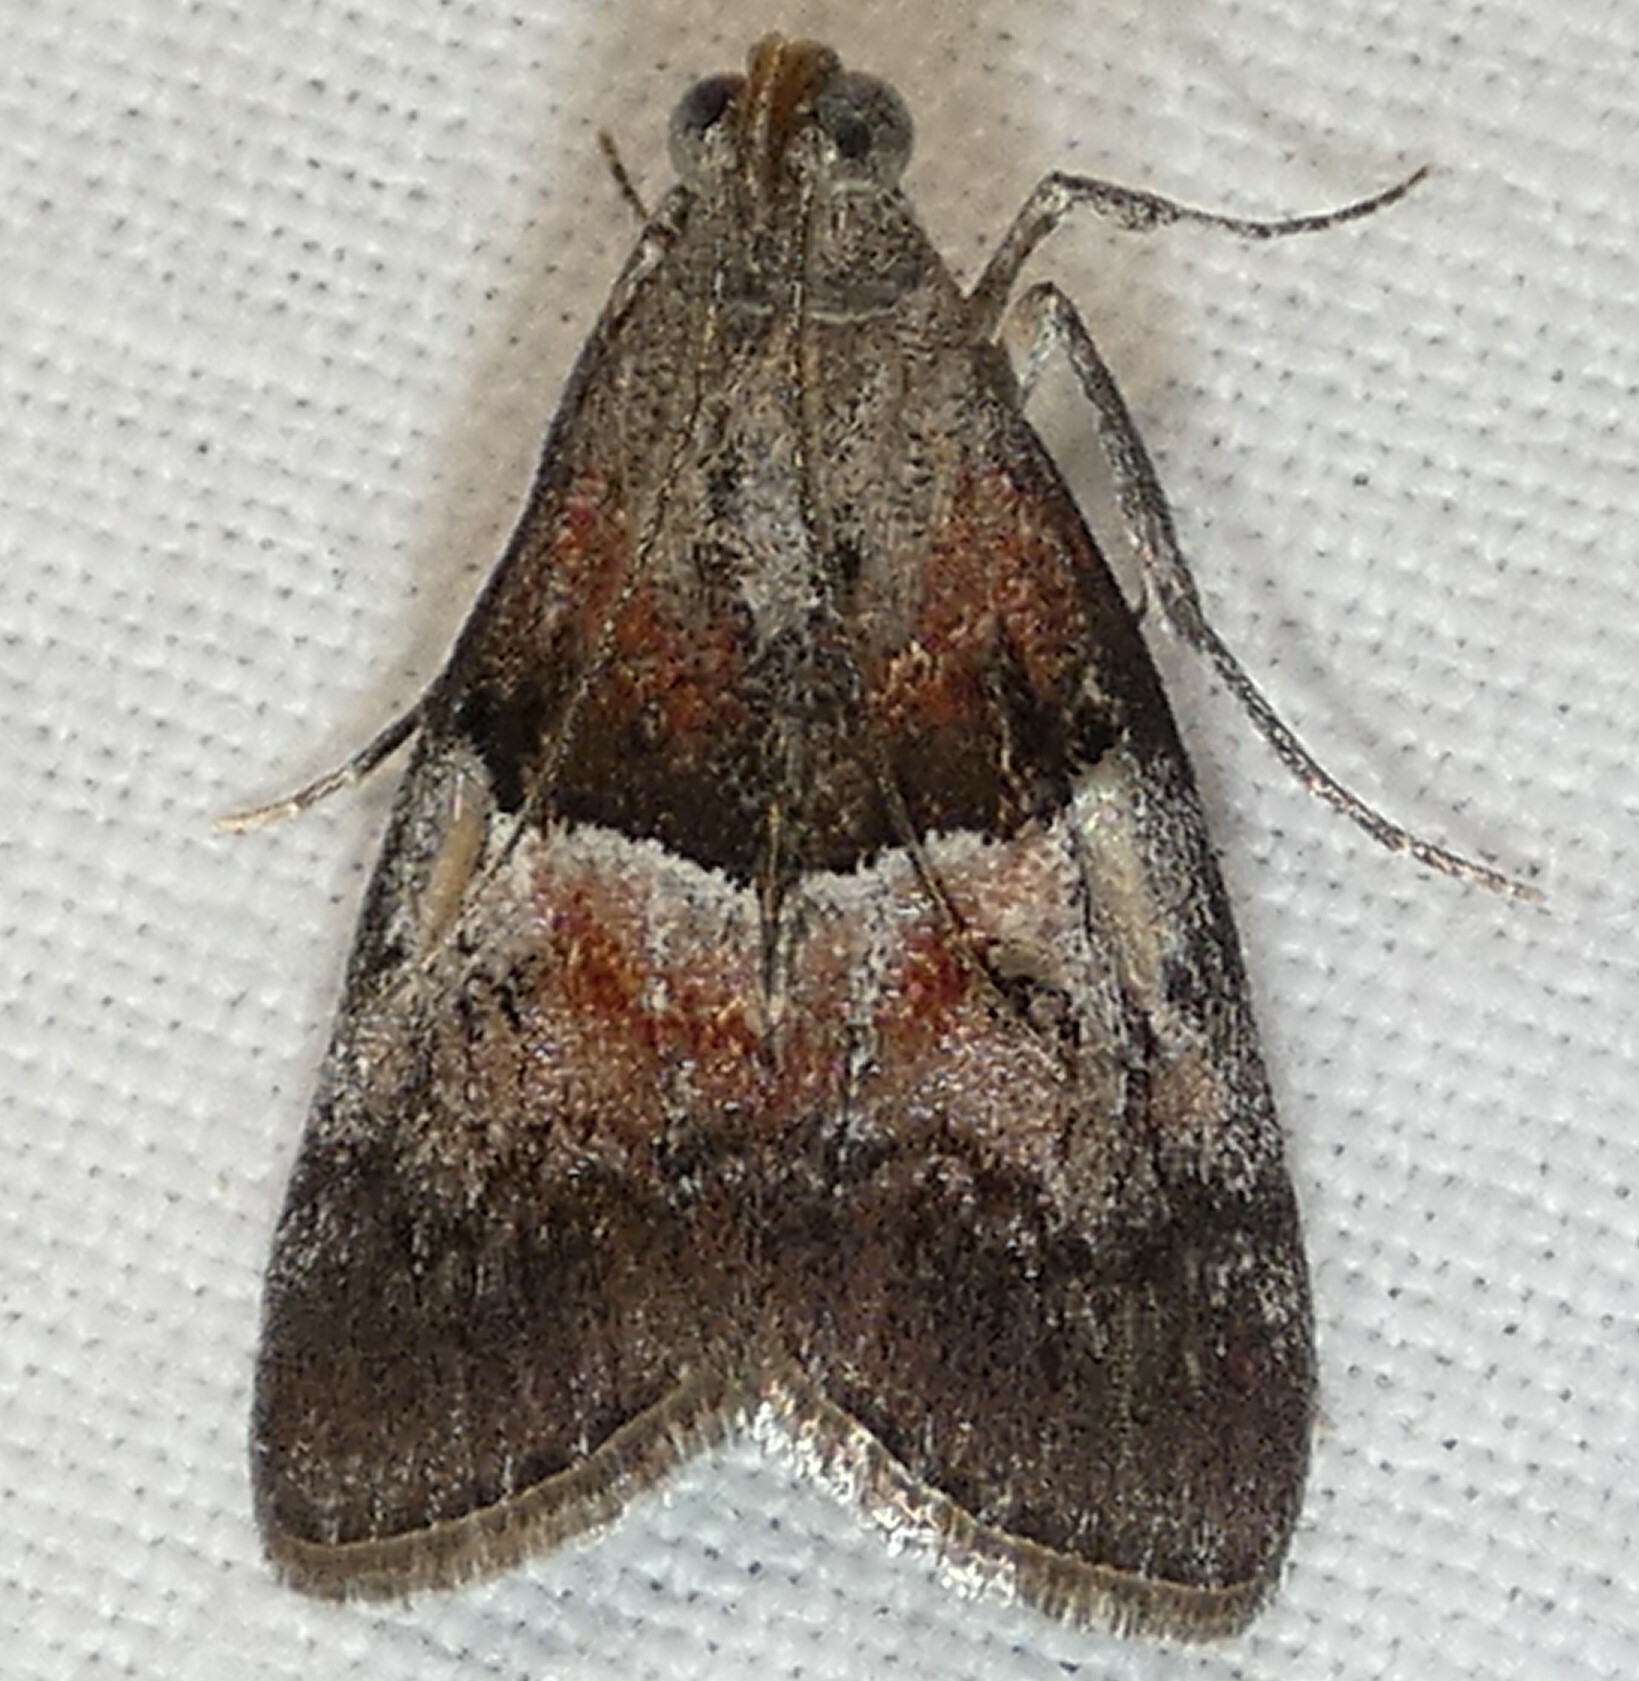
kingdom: Animalia
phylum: Arthropoda
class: Insecta
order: Lepidoptera
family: Pyralidae
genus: Pococera
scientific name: Pococera asperatella
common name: Maple webworm moth
